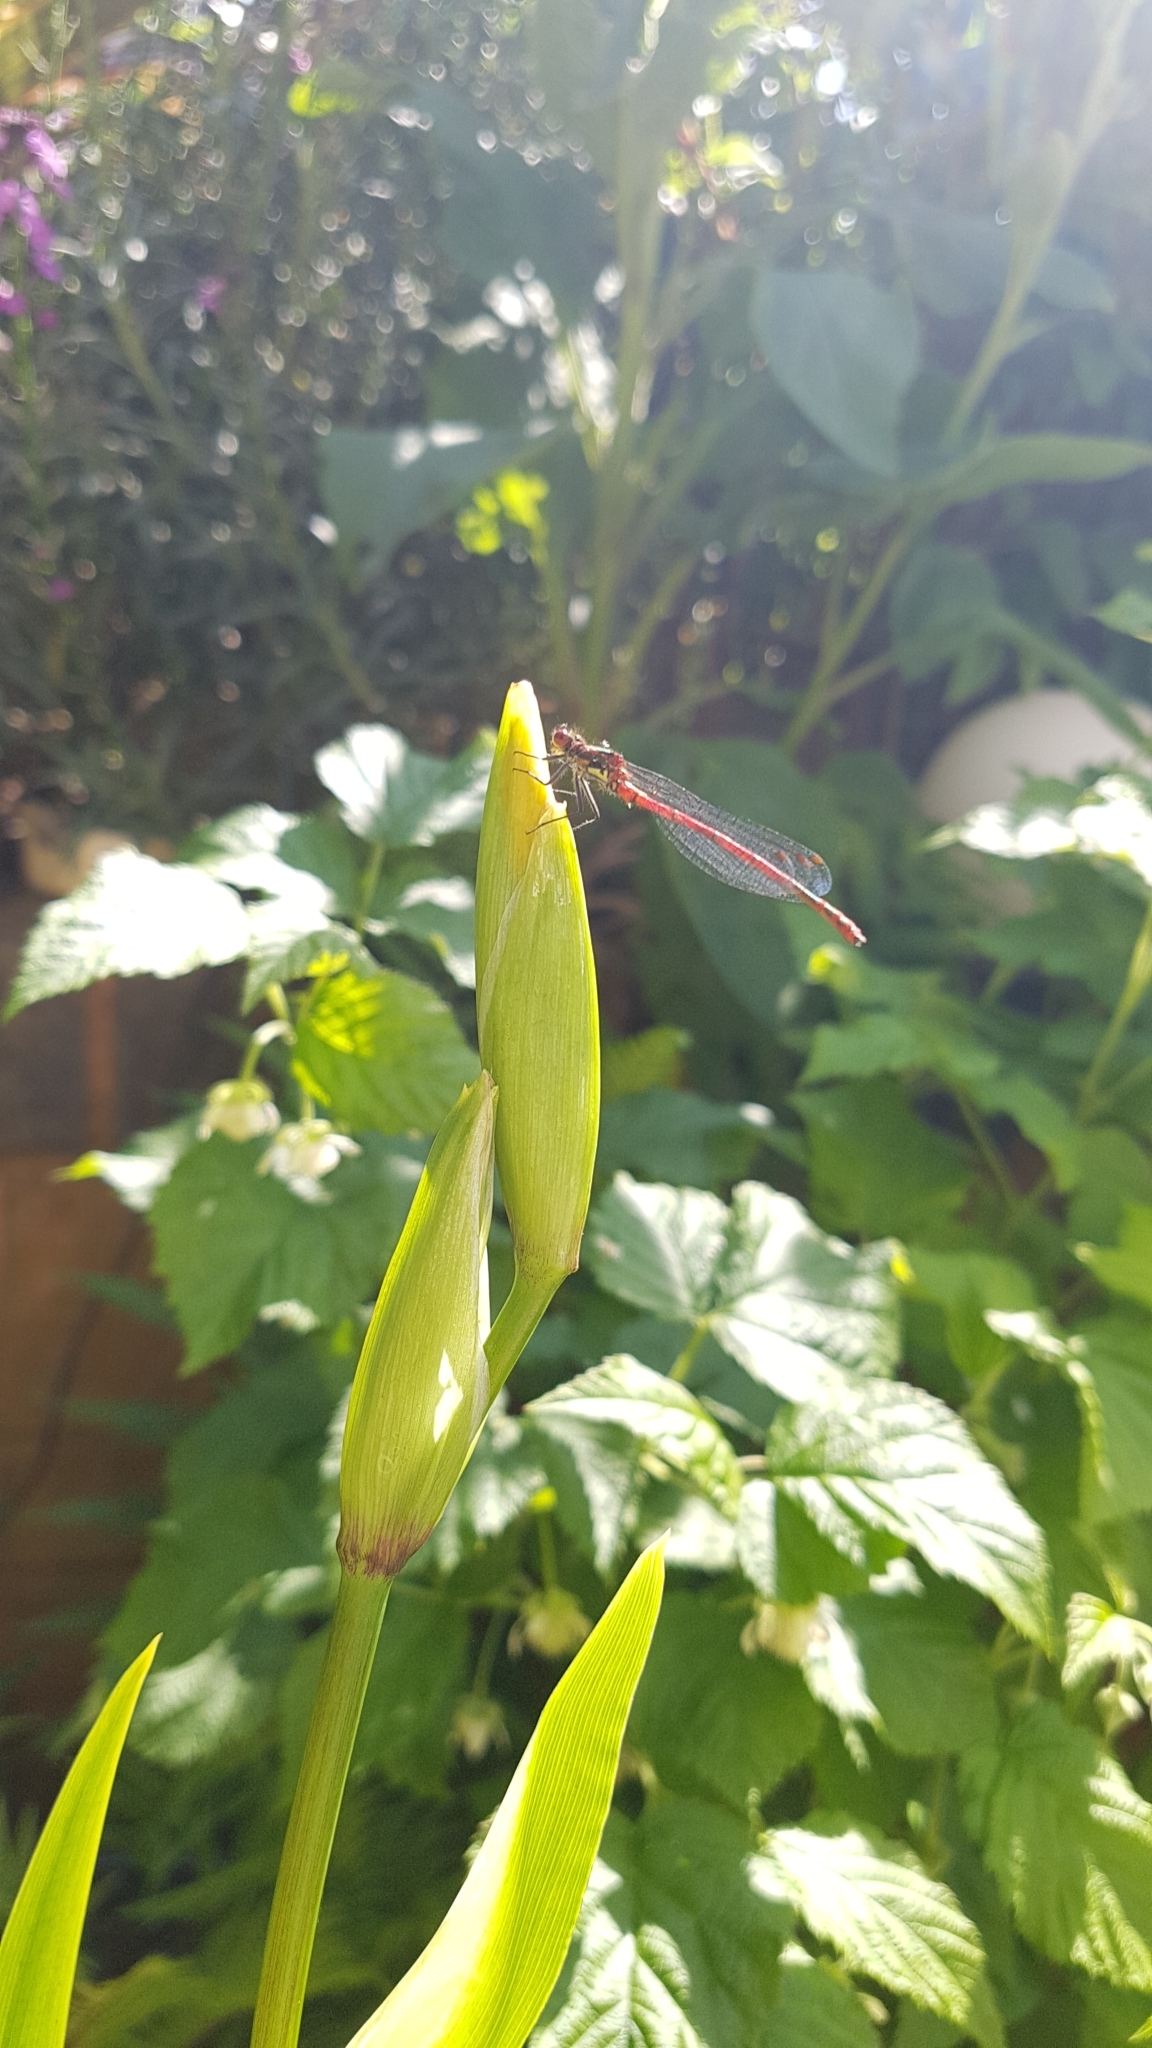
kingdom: Animalia
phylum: Arthropoda
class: Insecta
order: Odonata
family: Coenagrionidae
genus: Pyrrhosoma
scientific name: Pyrrhosoma nymphula
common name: Large red damsel
